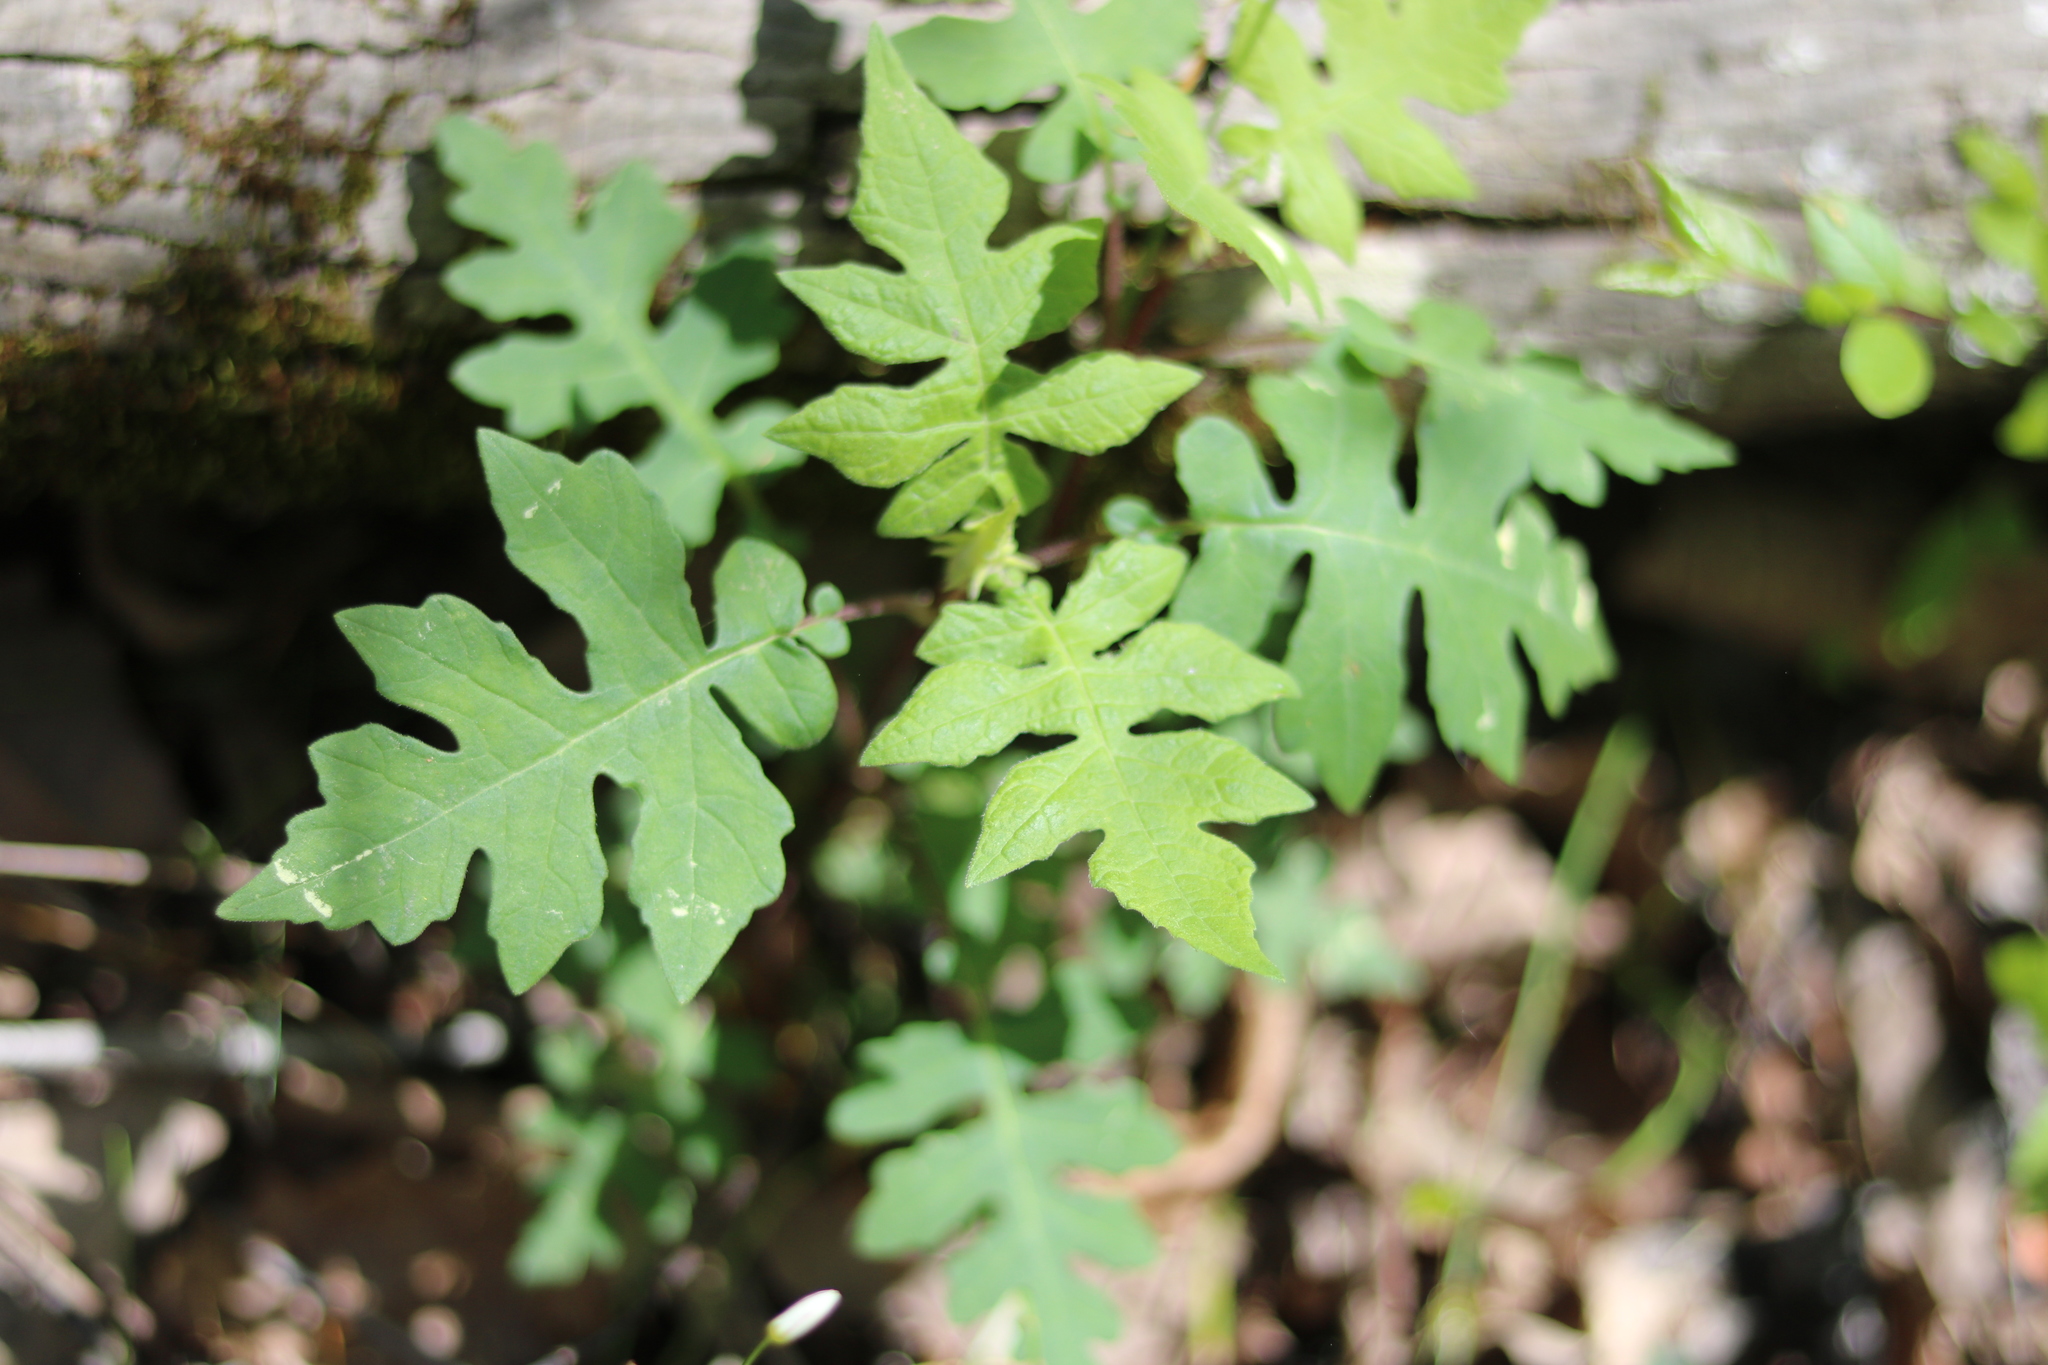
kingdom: Plantae
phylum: Tracheophyta
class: Magnoliopsida
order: Asterales
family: Asteraceae
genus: Polymnia
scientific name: Polymnia canadensis
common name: Pale-flowered leafcup
